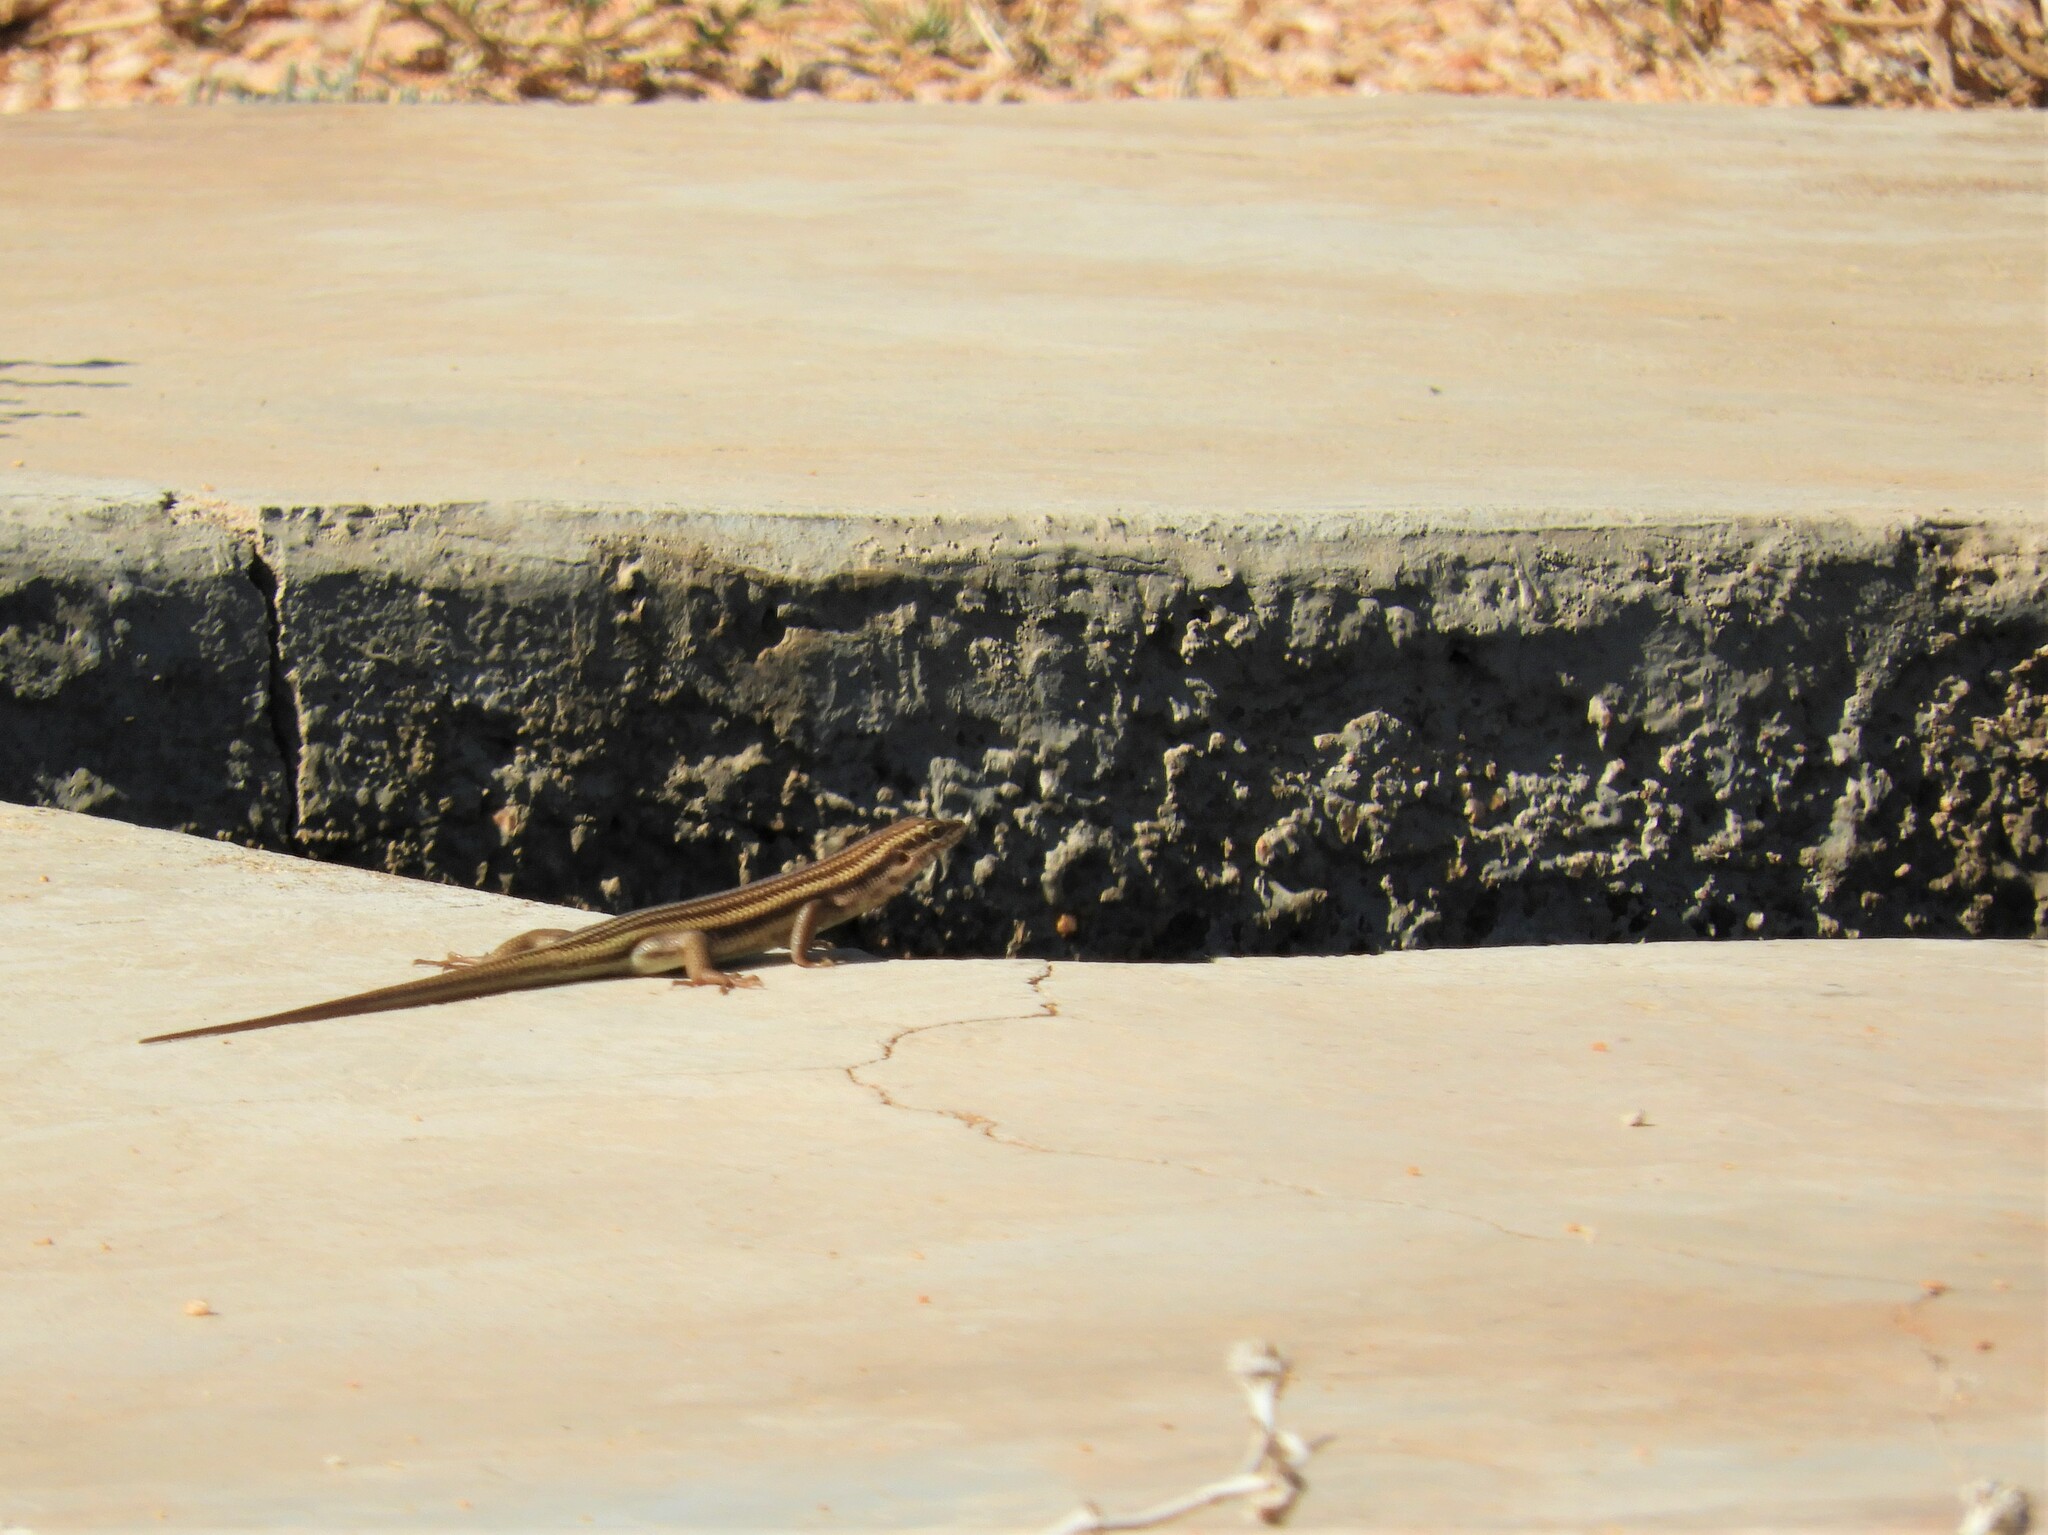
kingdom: Animalia
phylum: Chordata
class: Squamata
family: Scincidae
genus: Trachylepis
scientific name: Trachylepis sulcata
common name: Western rock skink
